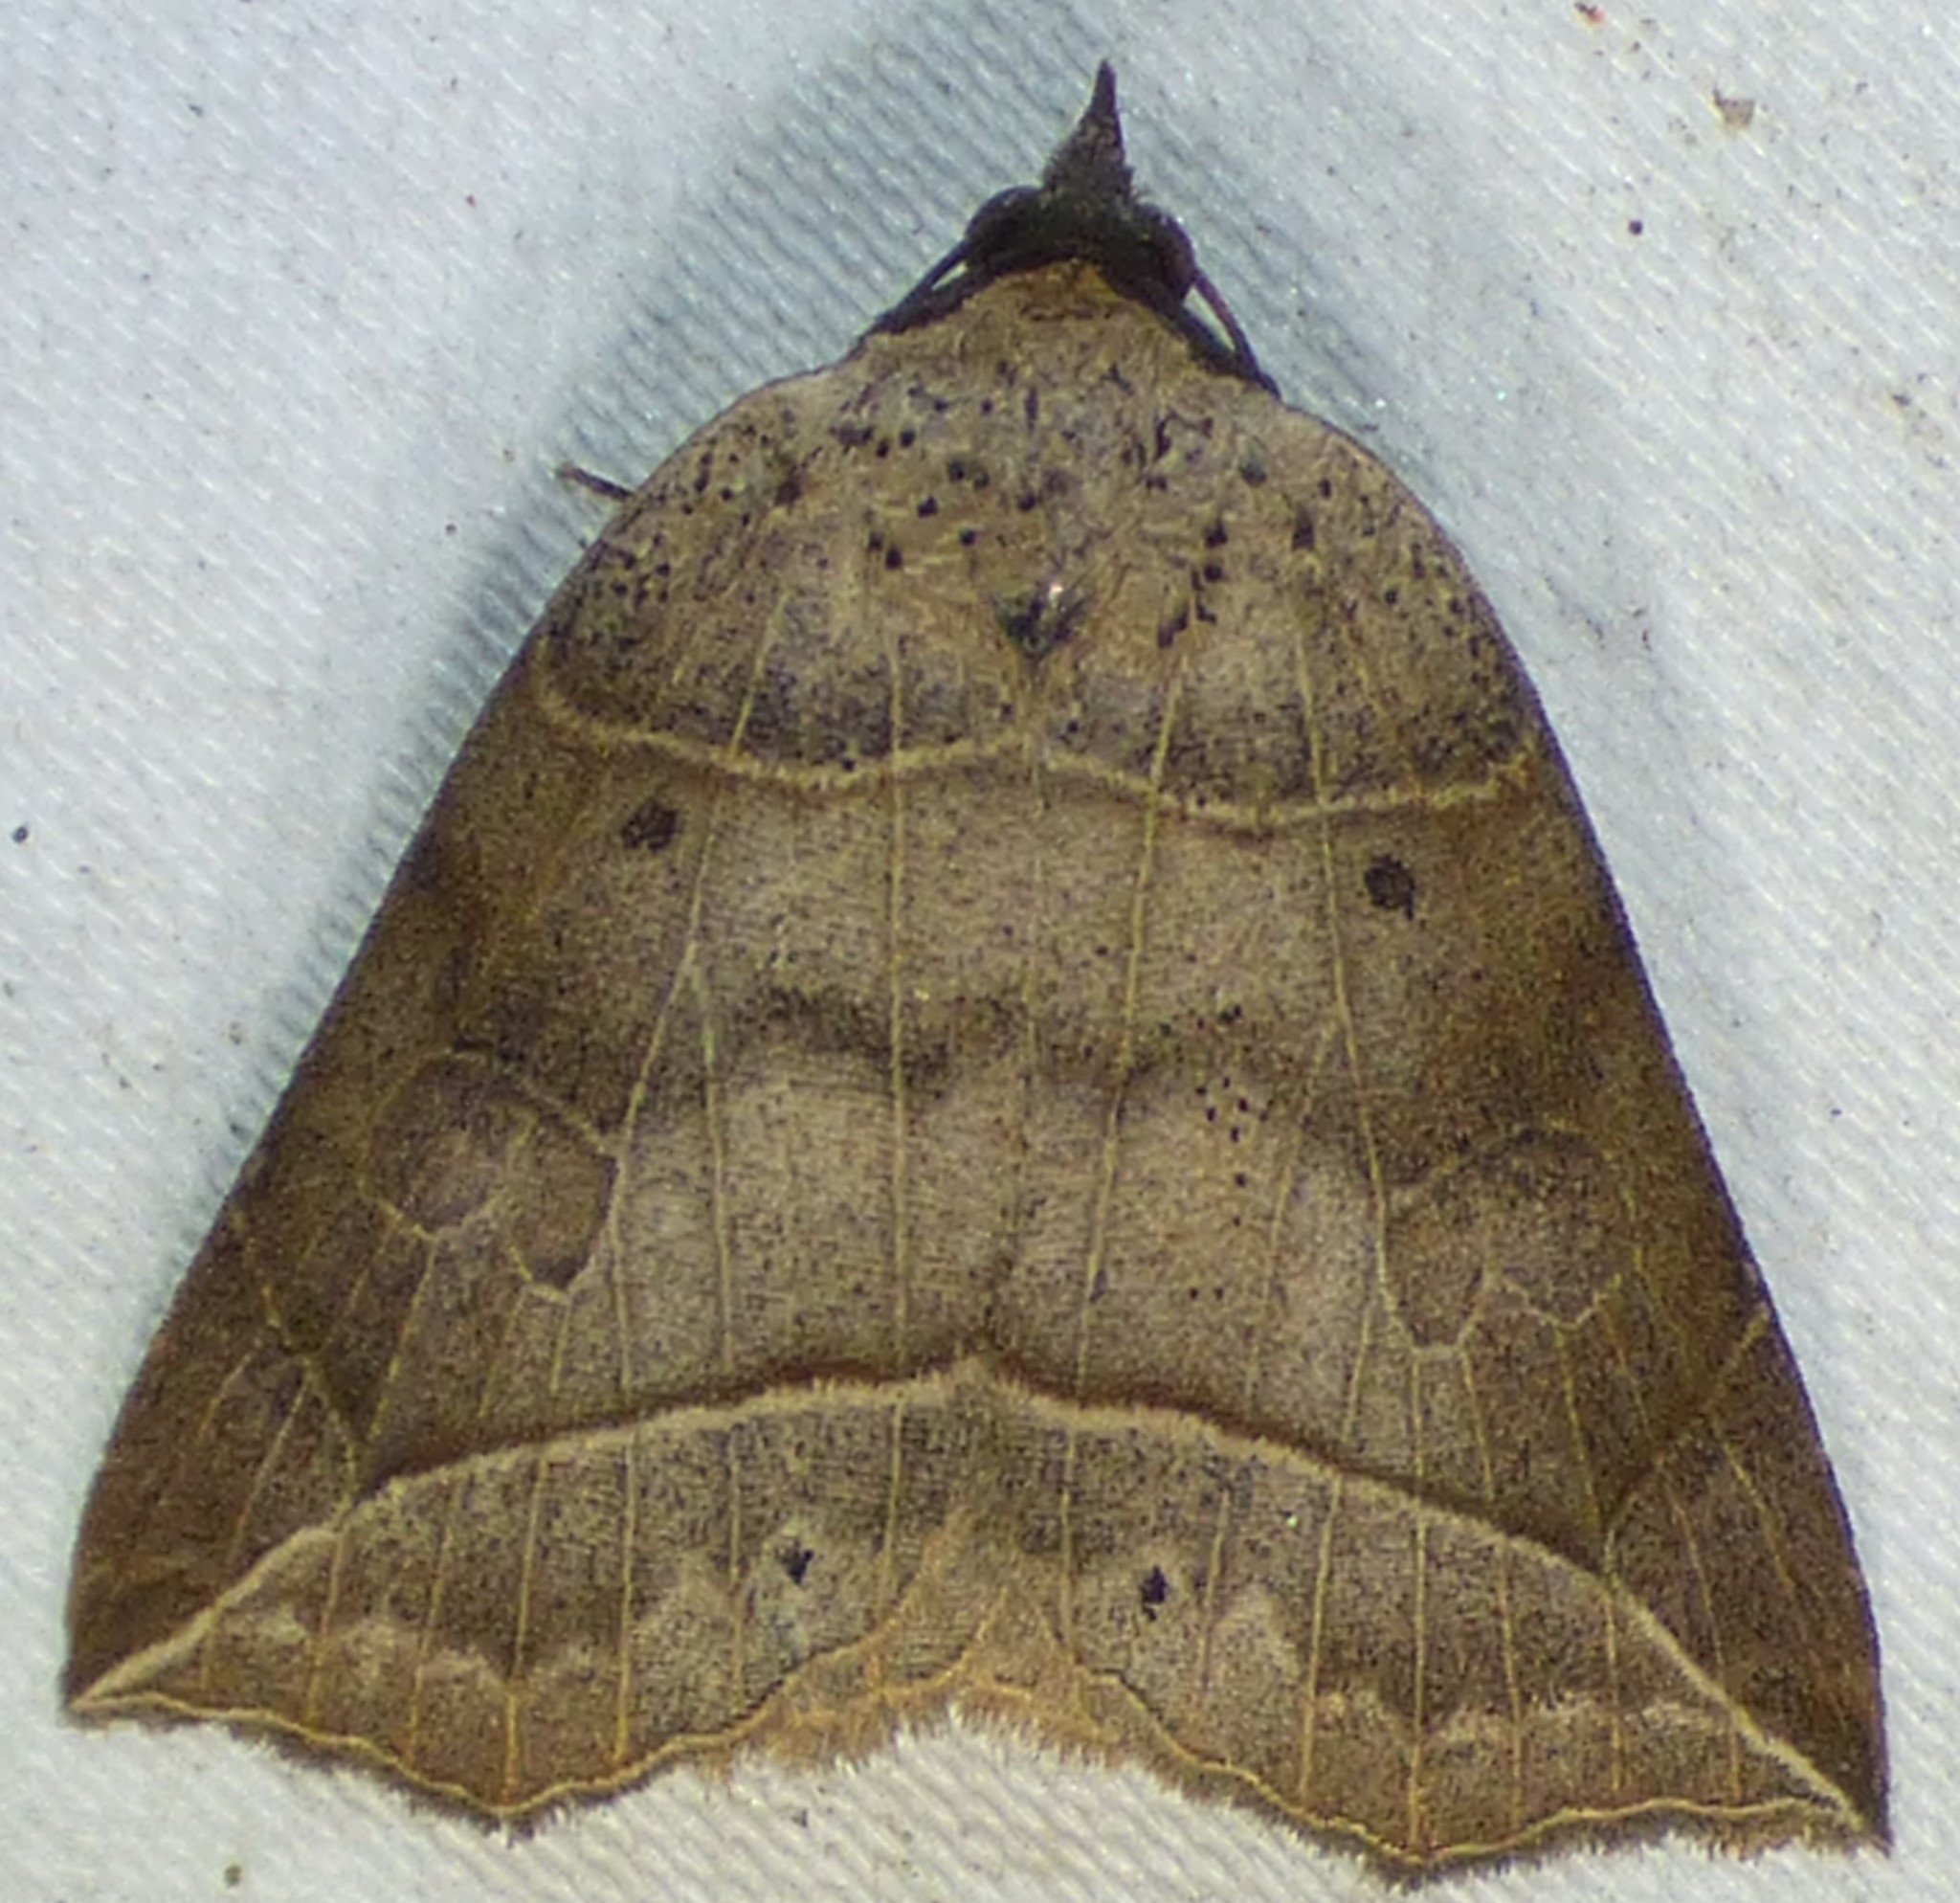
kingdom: Animalia
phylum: Arthropoda
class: Insecta
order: Lepidoptera
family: Erebidae
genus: Isogona
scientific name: Isogona tenuis
